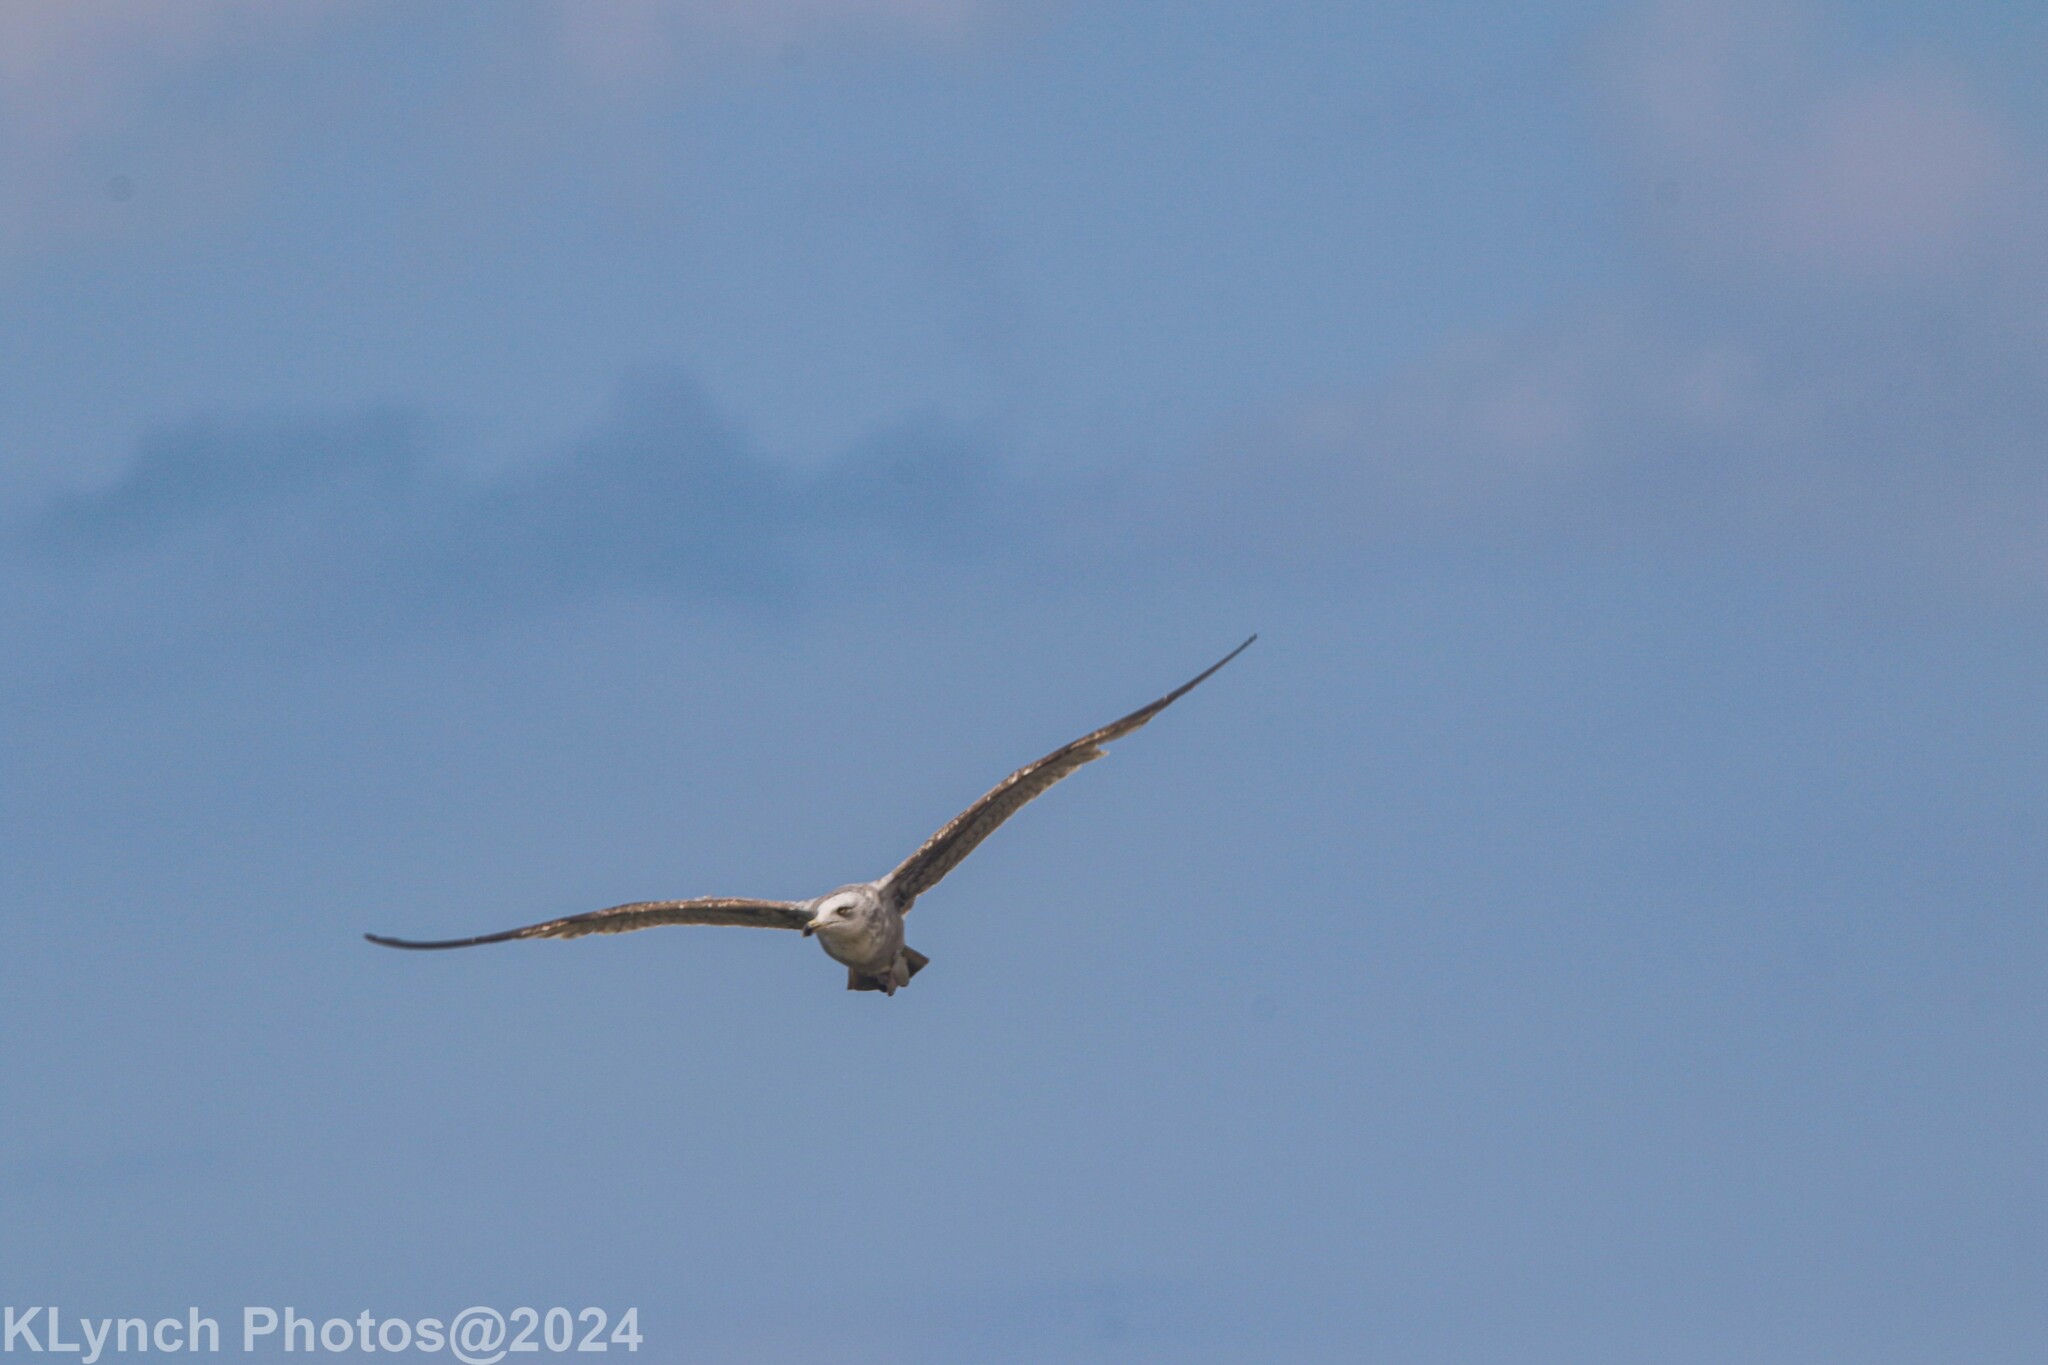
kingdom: Animalia
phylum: Chordata
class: Aves
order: Charadriiformes
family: Laridae
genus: Larus
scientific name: Larus argentatus
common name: Herring gull
